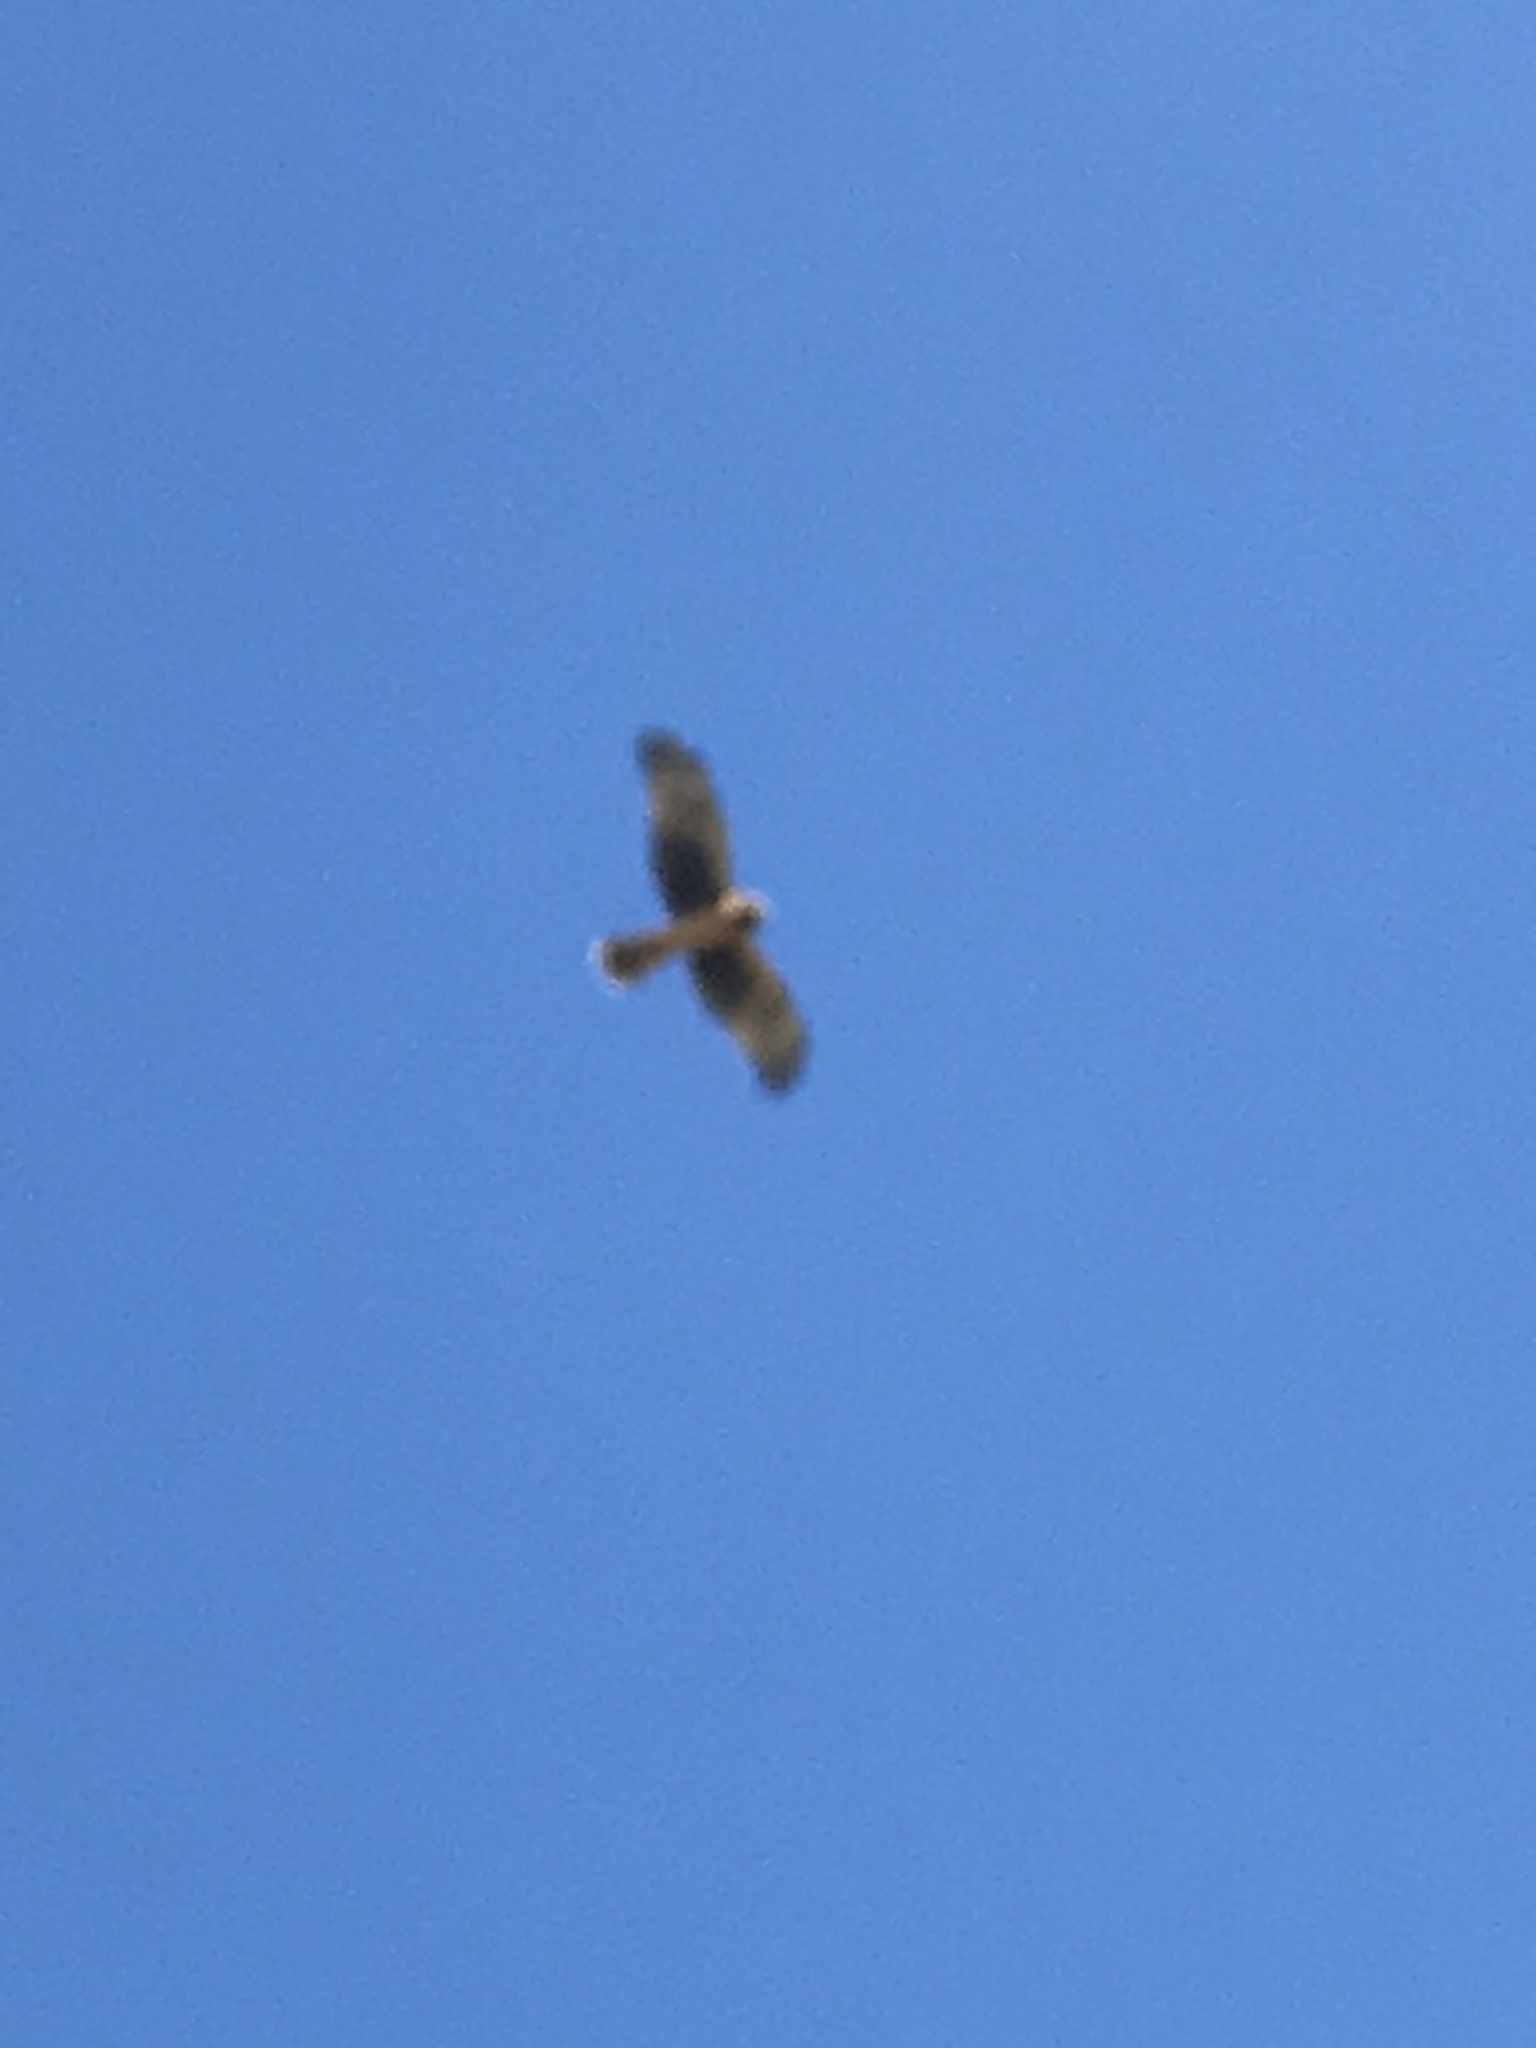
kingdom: Animalia
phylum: Chordata
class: Aves
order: Accipitriformes
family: Accipitridae
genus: Circus
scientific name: Circus cyaneus
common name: Hen harrier
